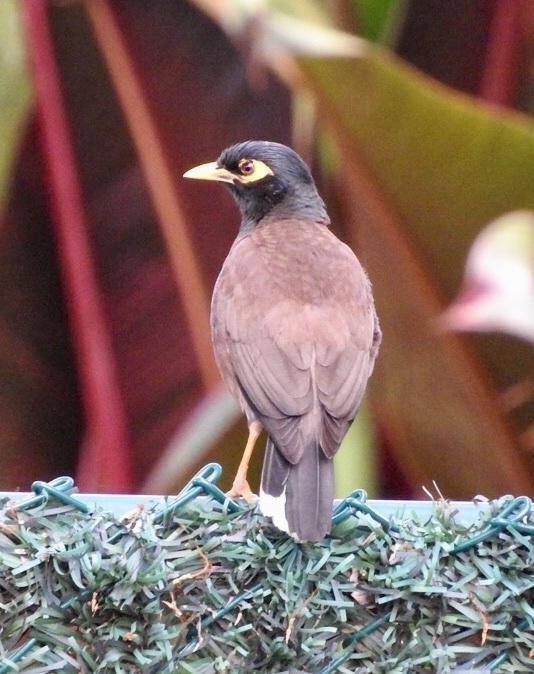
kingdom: Animalia
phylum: Chordata
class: Aves
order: Passeriformes
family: Sturnidae
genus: Acridotheres
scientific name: Acridotheres tristis
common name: Common myna
